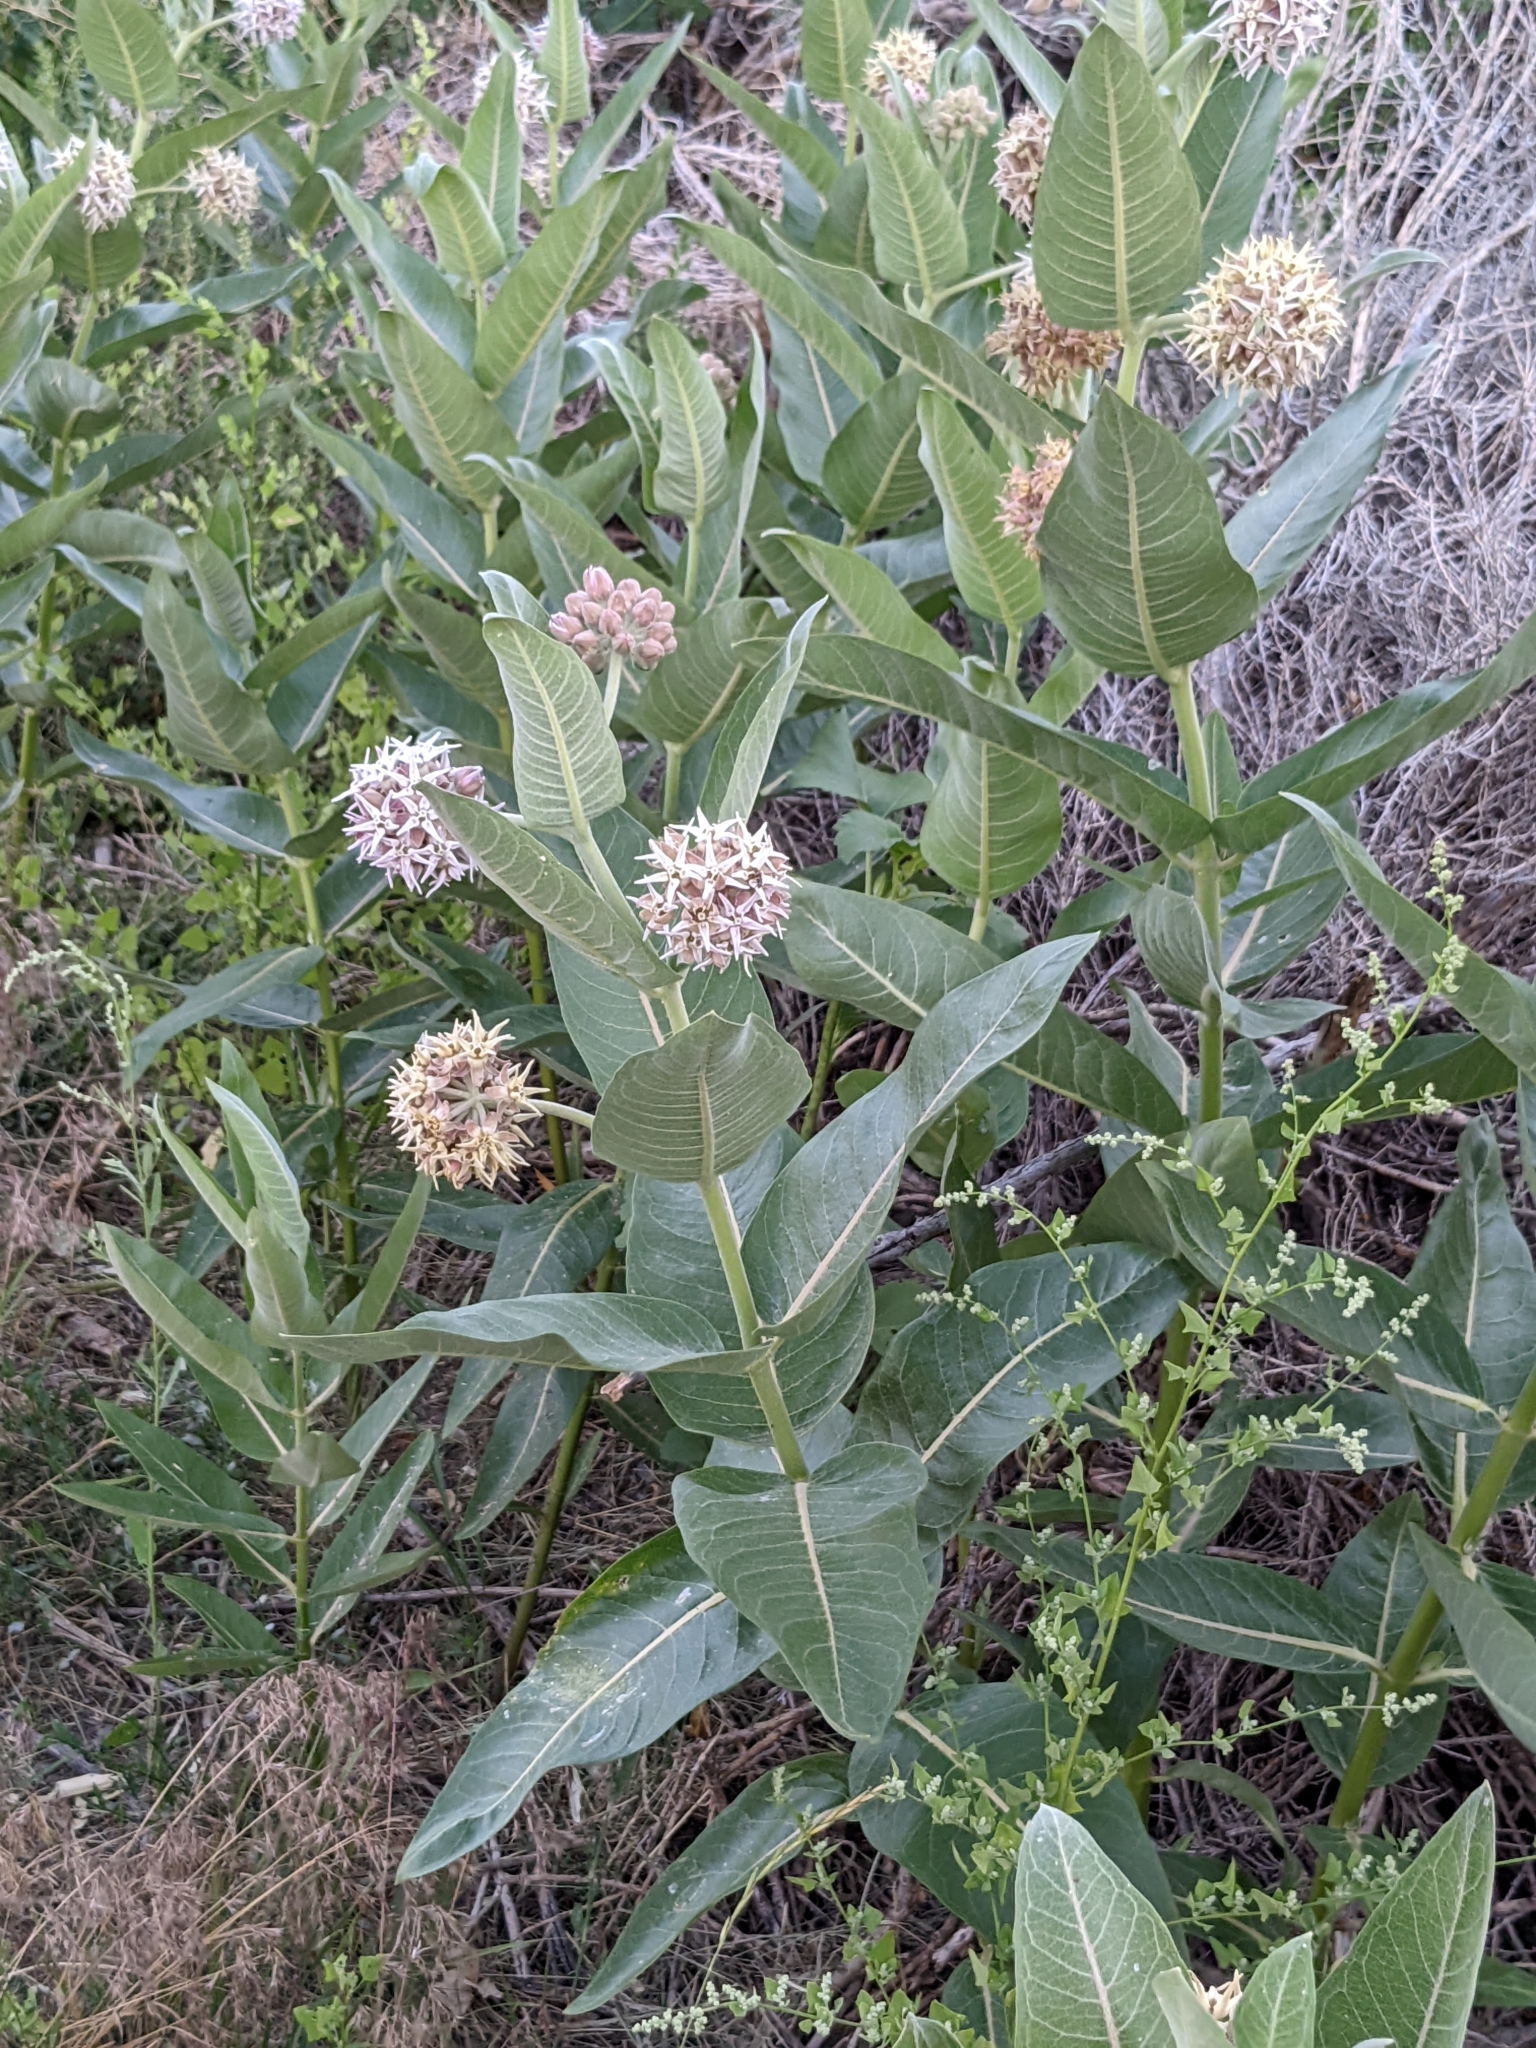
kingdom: Plantae
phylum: Tracheophyta
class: Magnoliopsida
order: Gentianales
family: Apocynaceae
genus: Asclepias
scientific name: Asclepias speciosa
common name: Showy milkweed
